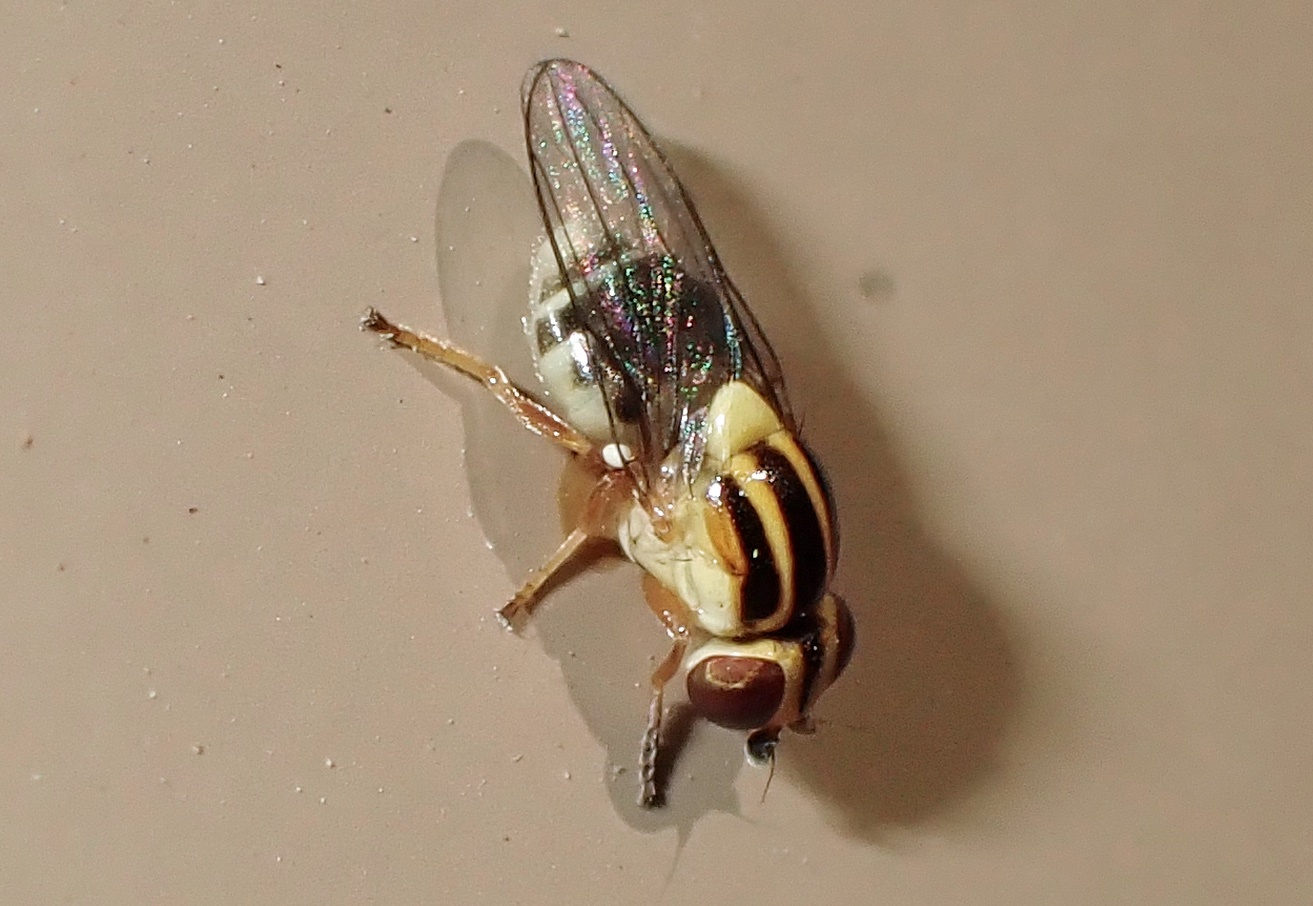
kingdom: Animalia
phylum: Arthropoda
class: Insecta
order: Diptera
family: Chloropidae
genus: Thaumatomyia
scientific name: Thaumatomyia glabra
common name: Chloropid fly
